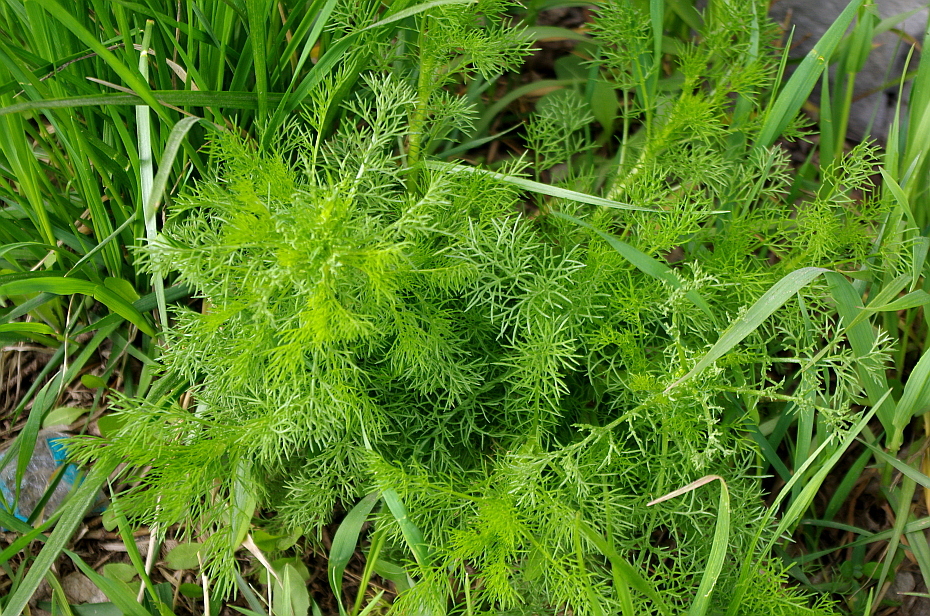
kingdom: Plantae
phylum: Tracheophyta
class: Magnoliopsida
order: Asterales
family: Asteraceae
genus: Tripleurospermum
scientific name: Tripleurospermum inodorum
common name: Scentless mayweed
